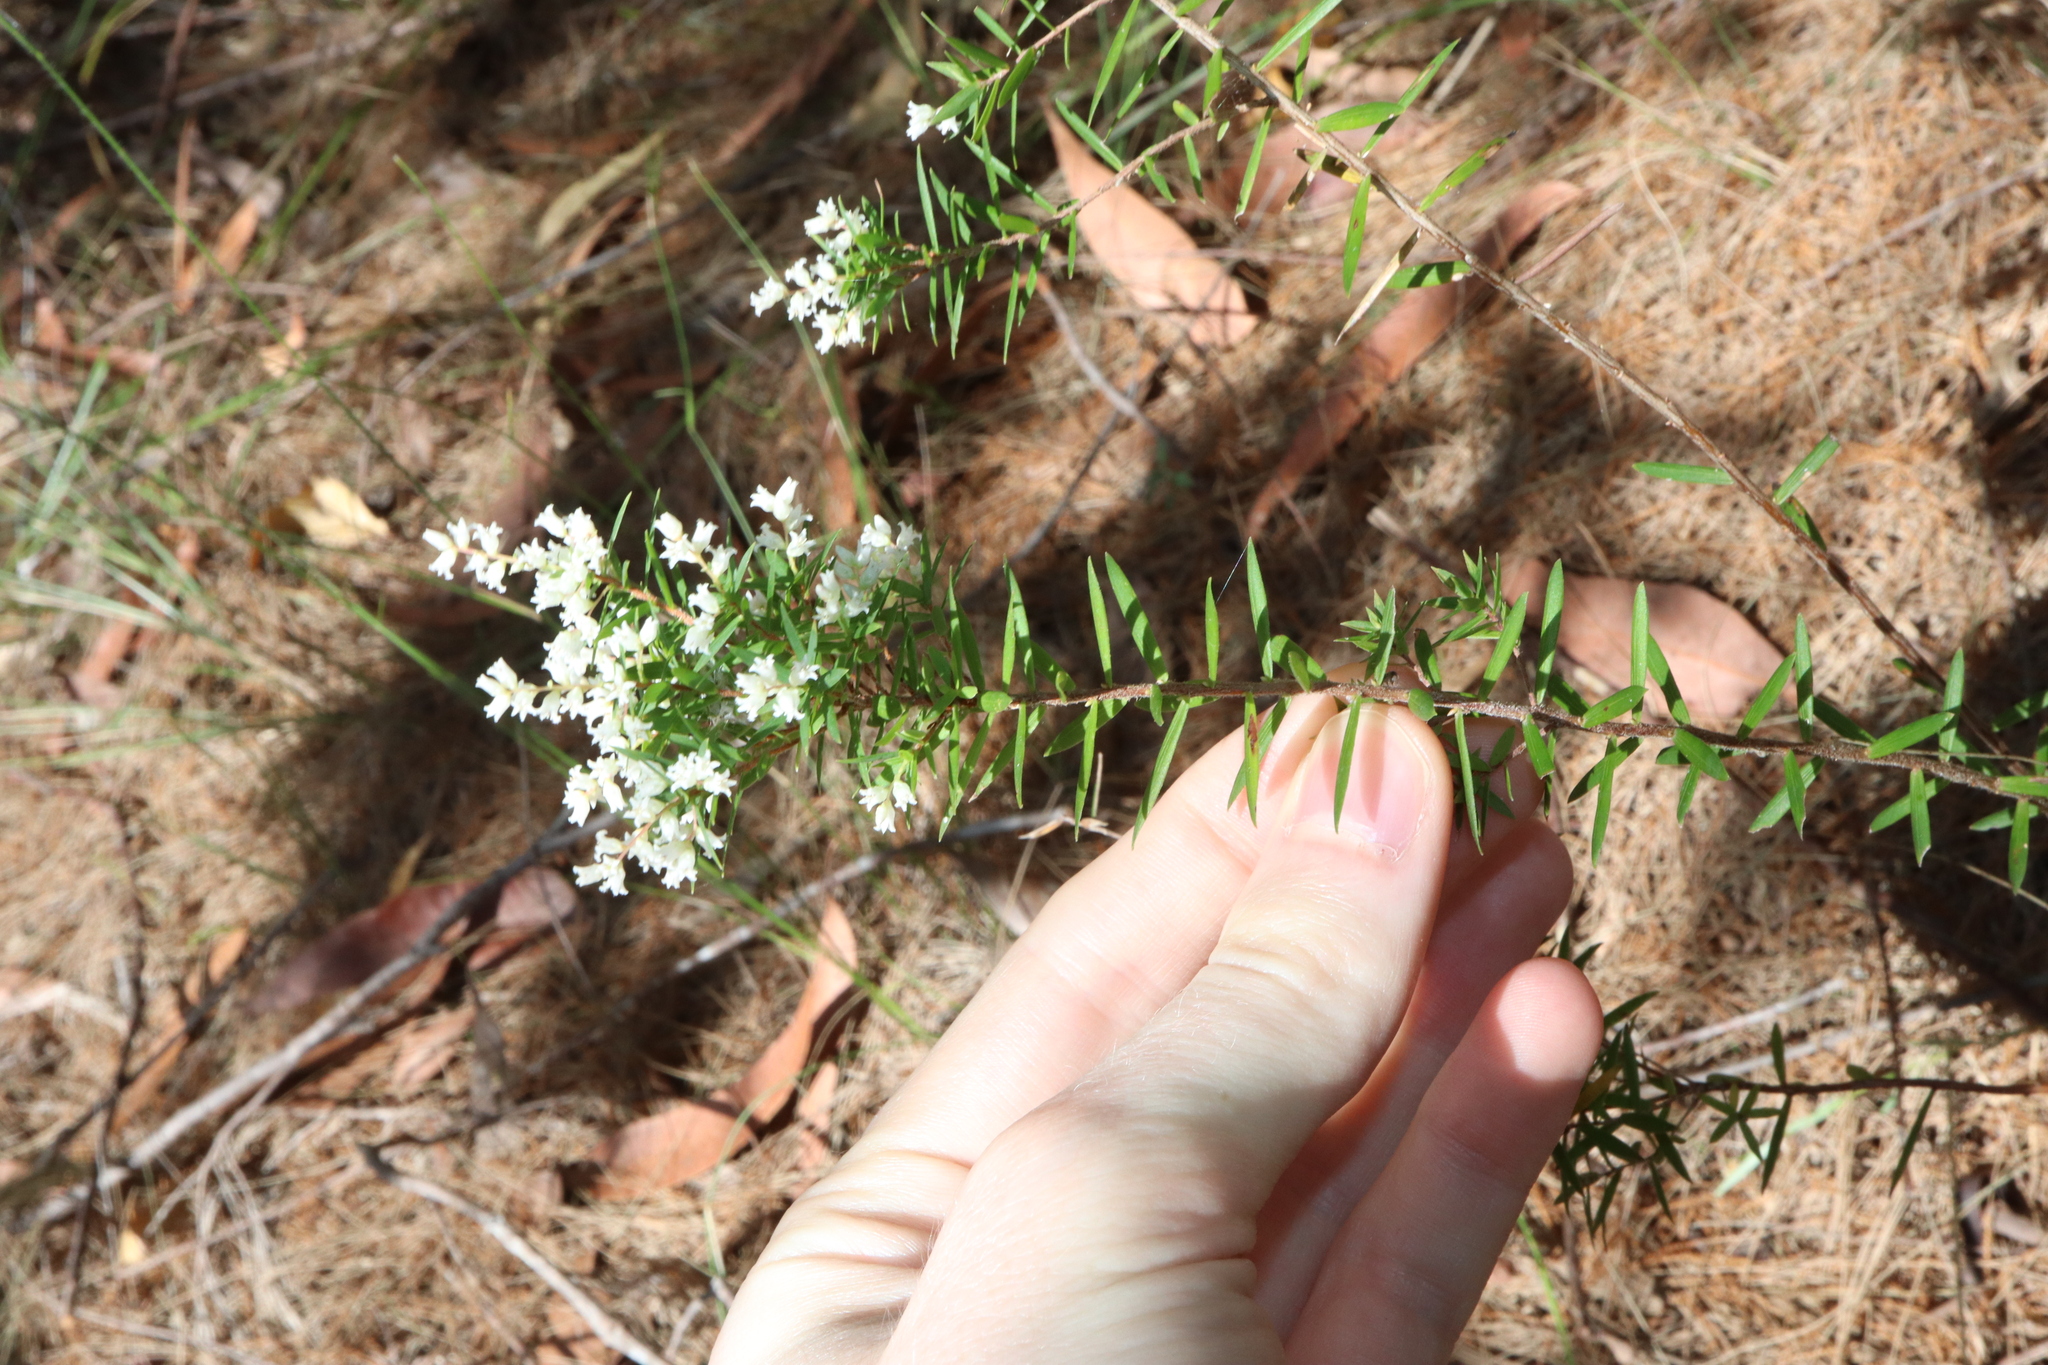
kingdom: Plantae
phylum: Tracheophyta
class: Magnoliopsida
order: Ericales
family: Ericaceae
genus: Leucopogon
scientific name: Leucopogon lanceolatus
